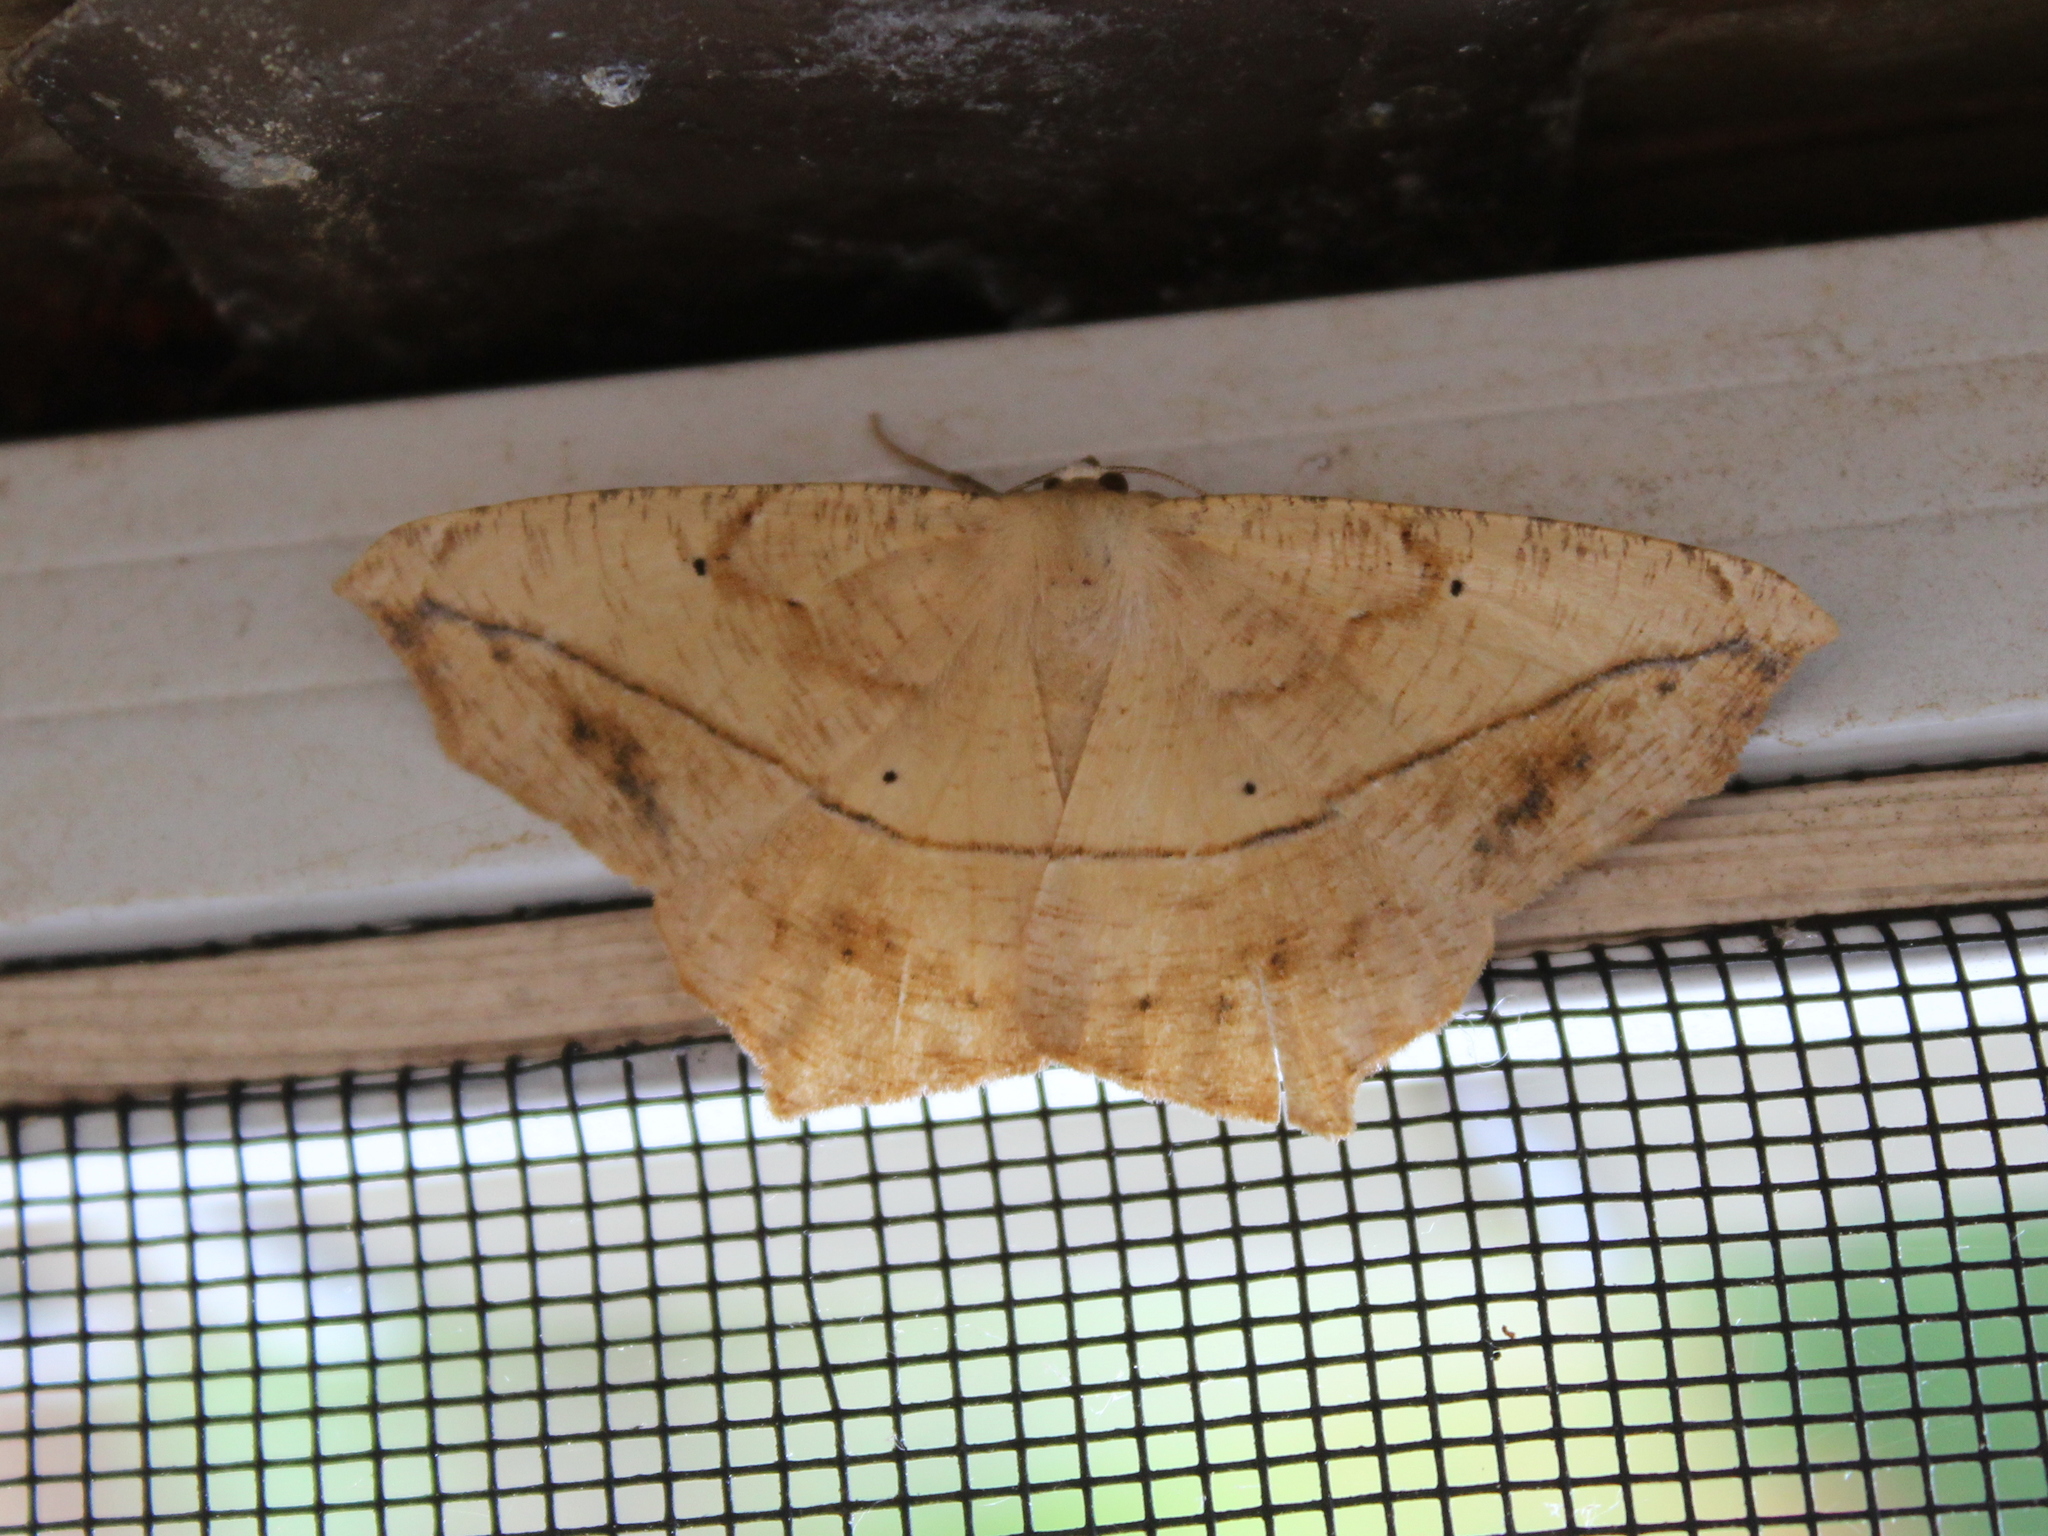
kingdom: Animalia
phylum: Arthropoda
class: Insecta
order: Lepidoptera
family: Geometridae
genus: Prochoerodes
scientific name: Prochoerodes lineola
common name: Large maple spanworm
